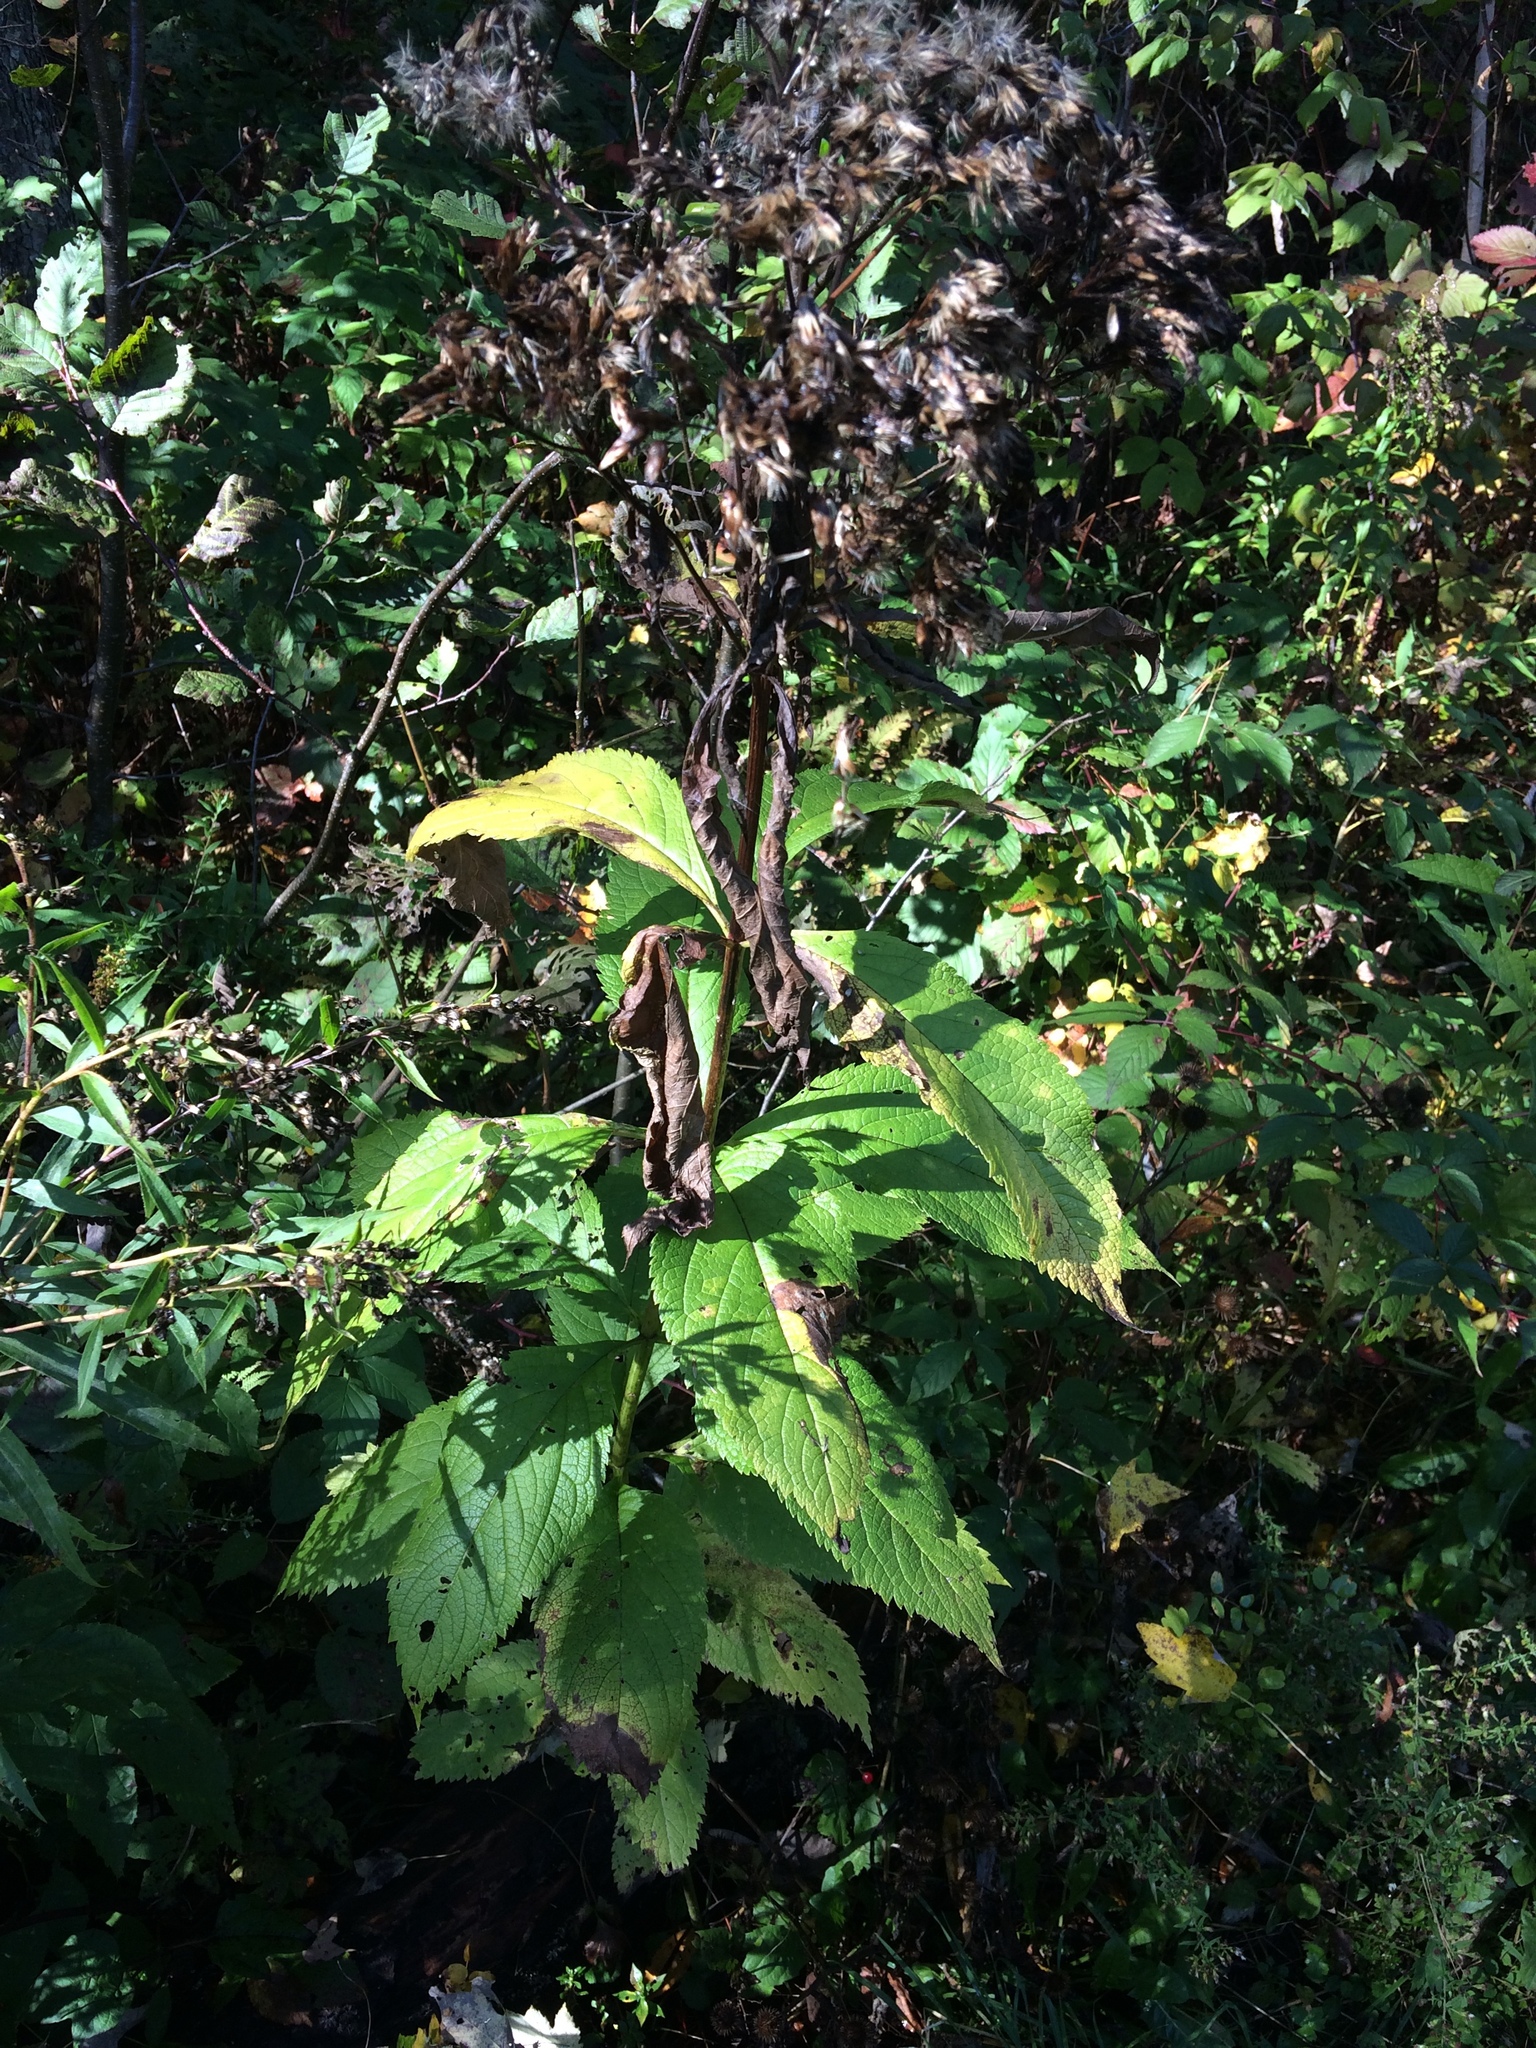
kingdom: Plantae
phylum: Tracheophyta
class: Magnoliopsida
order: Asterales
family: Asteraceae
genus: Eutrochium
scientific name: Eutrochium maculatum
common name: Spotted joe pye weed
